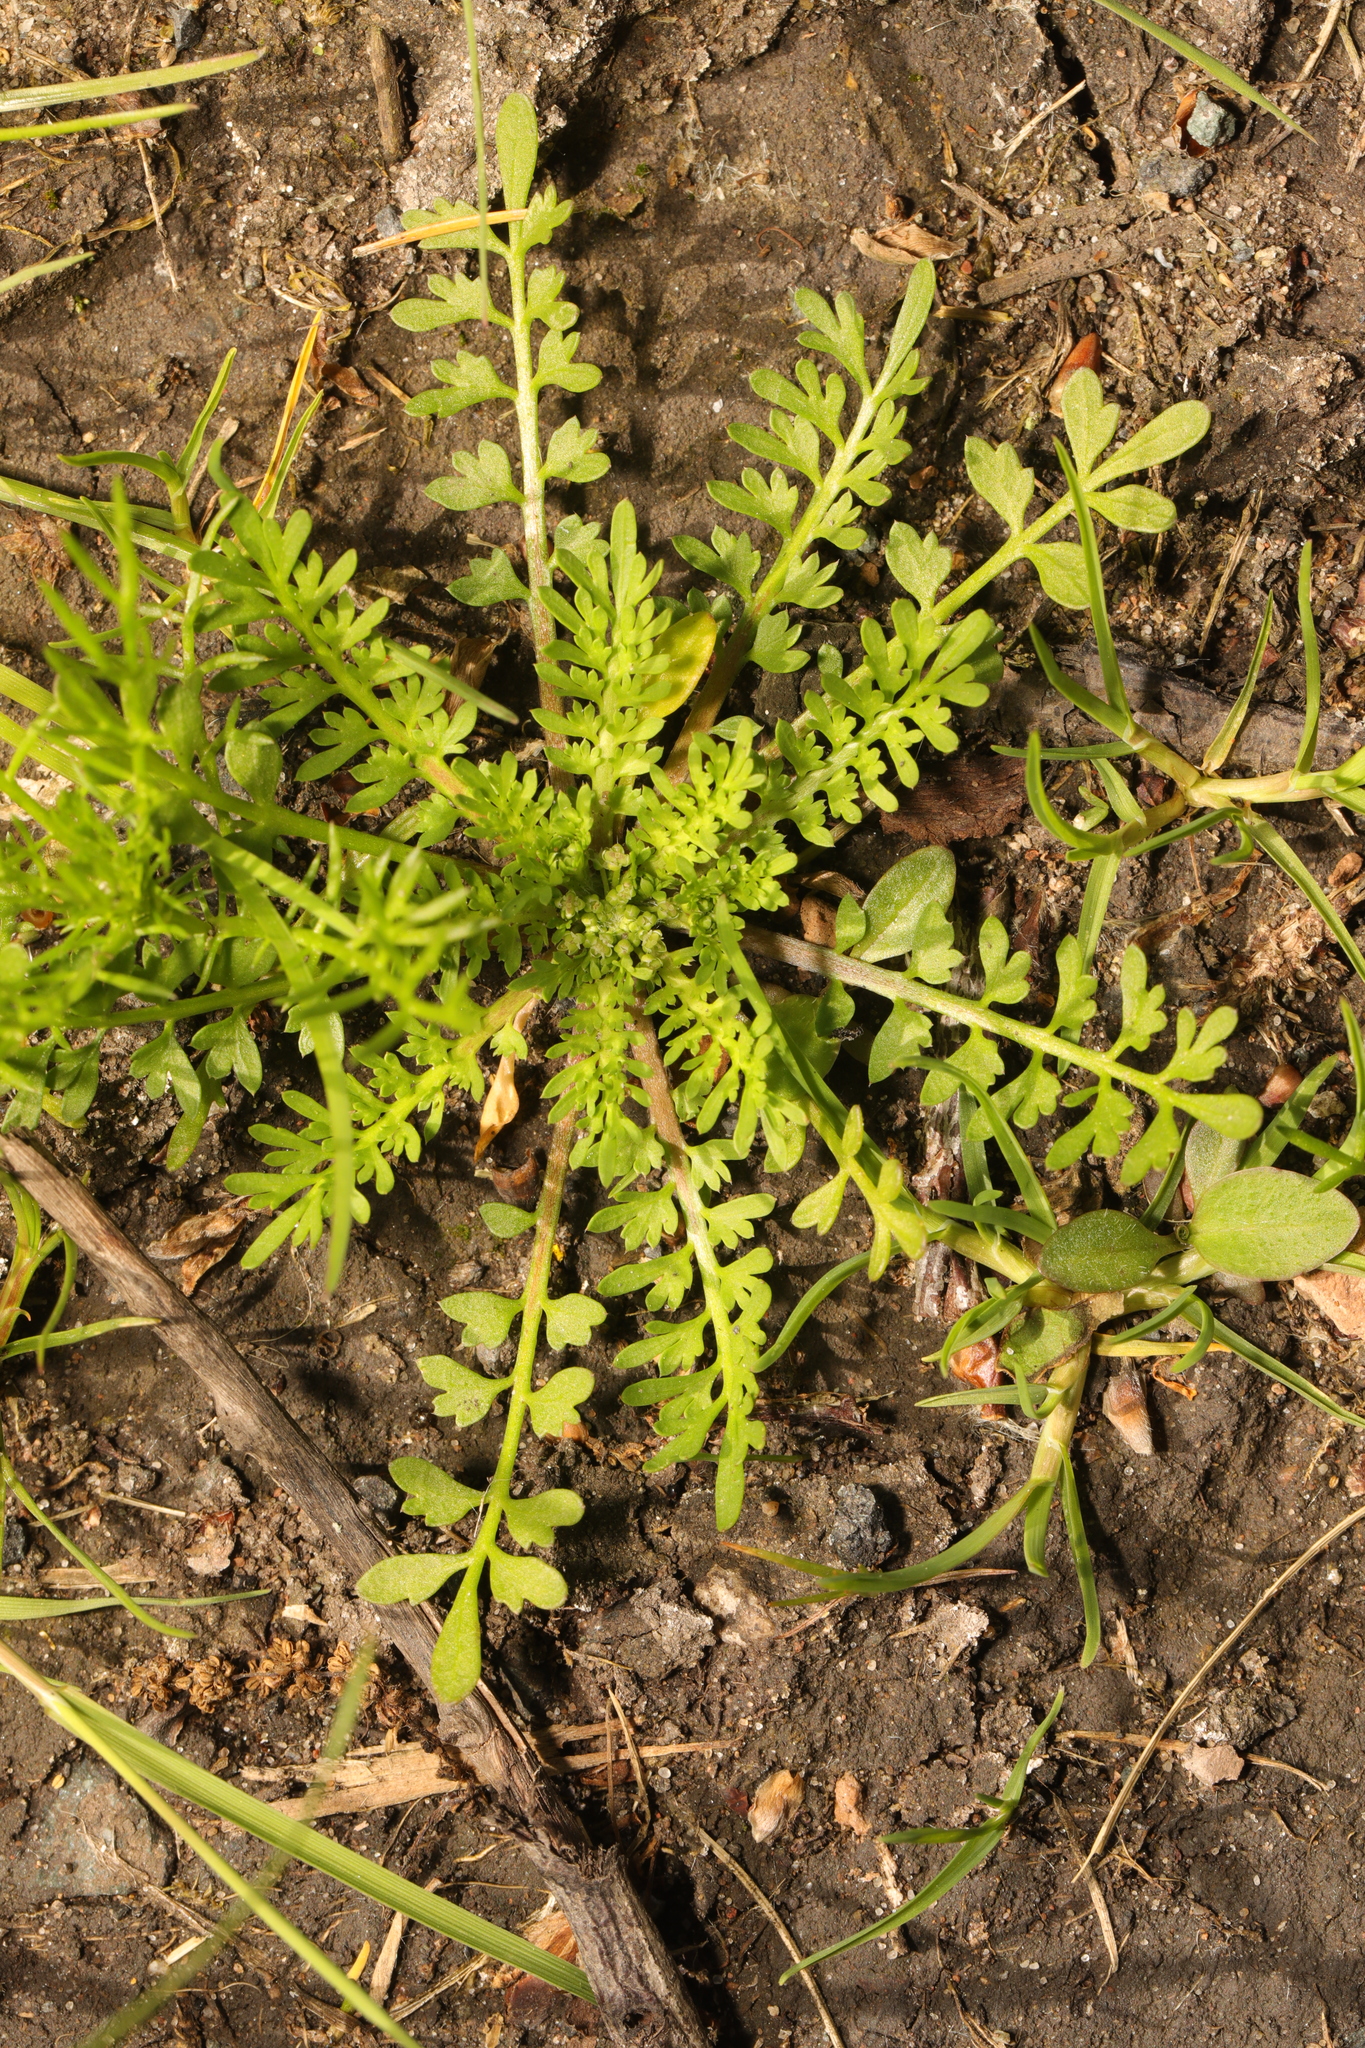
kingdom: Plantae
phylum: Tracheophyta
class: Magnoliopsida
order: Brassicales
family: Brassicaceae
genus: Lepidium
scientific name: Lepidium didymum
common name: Lesser swinecress
